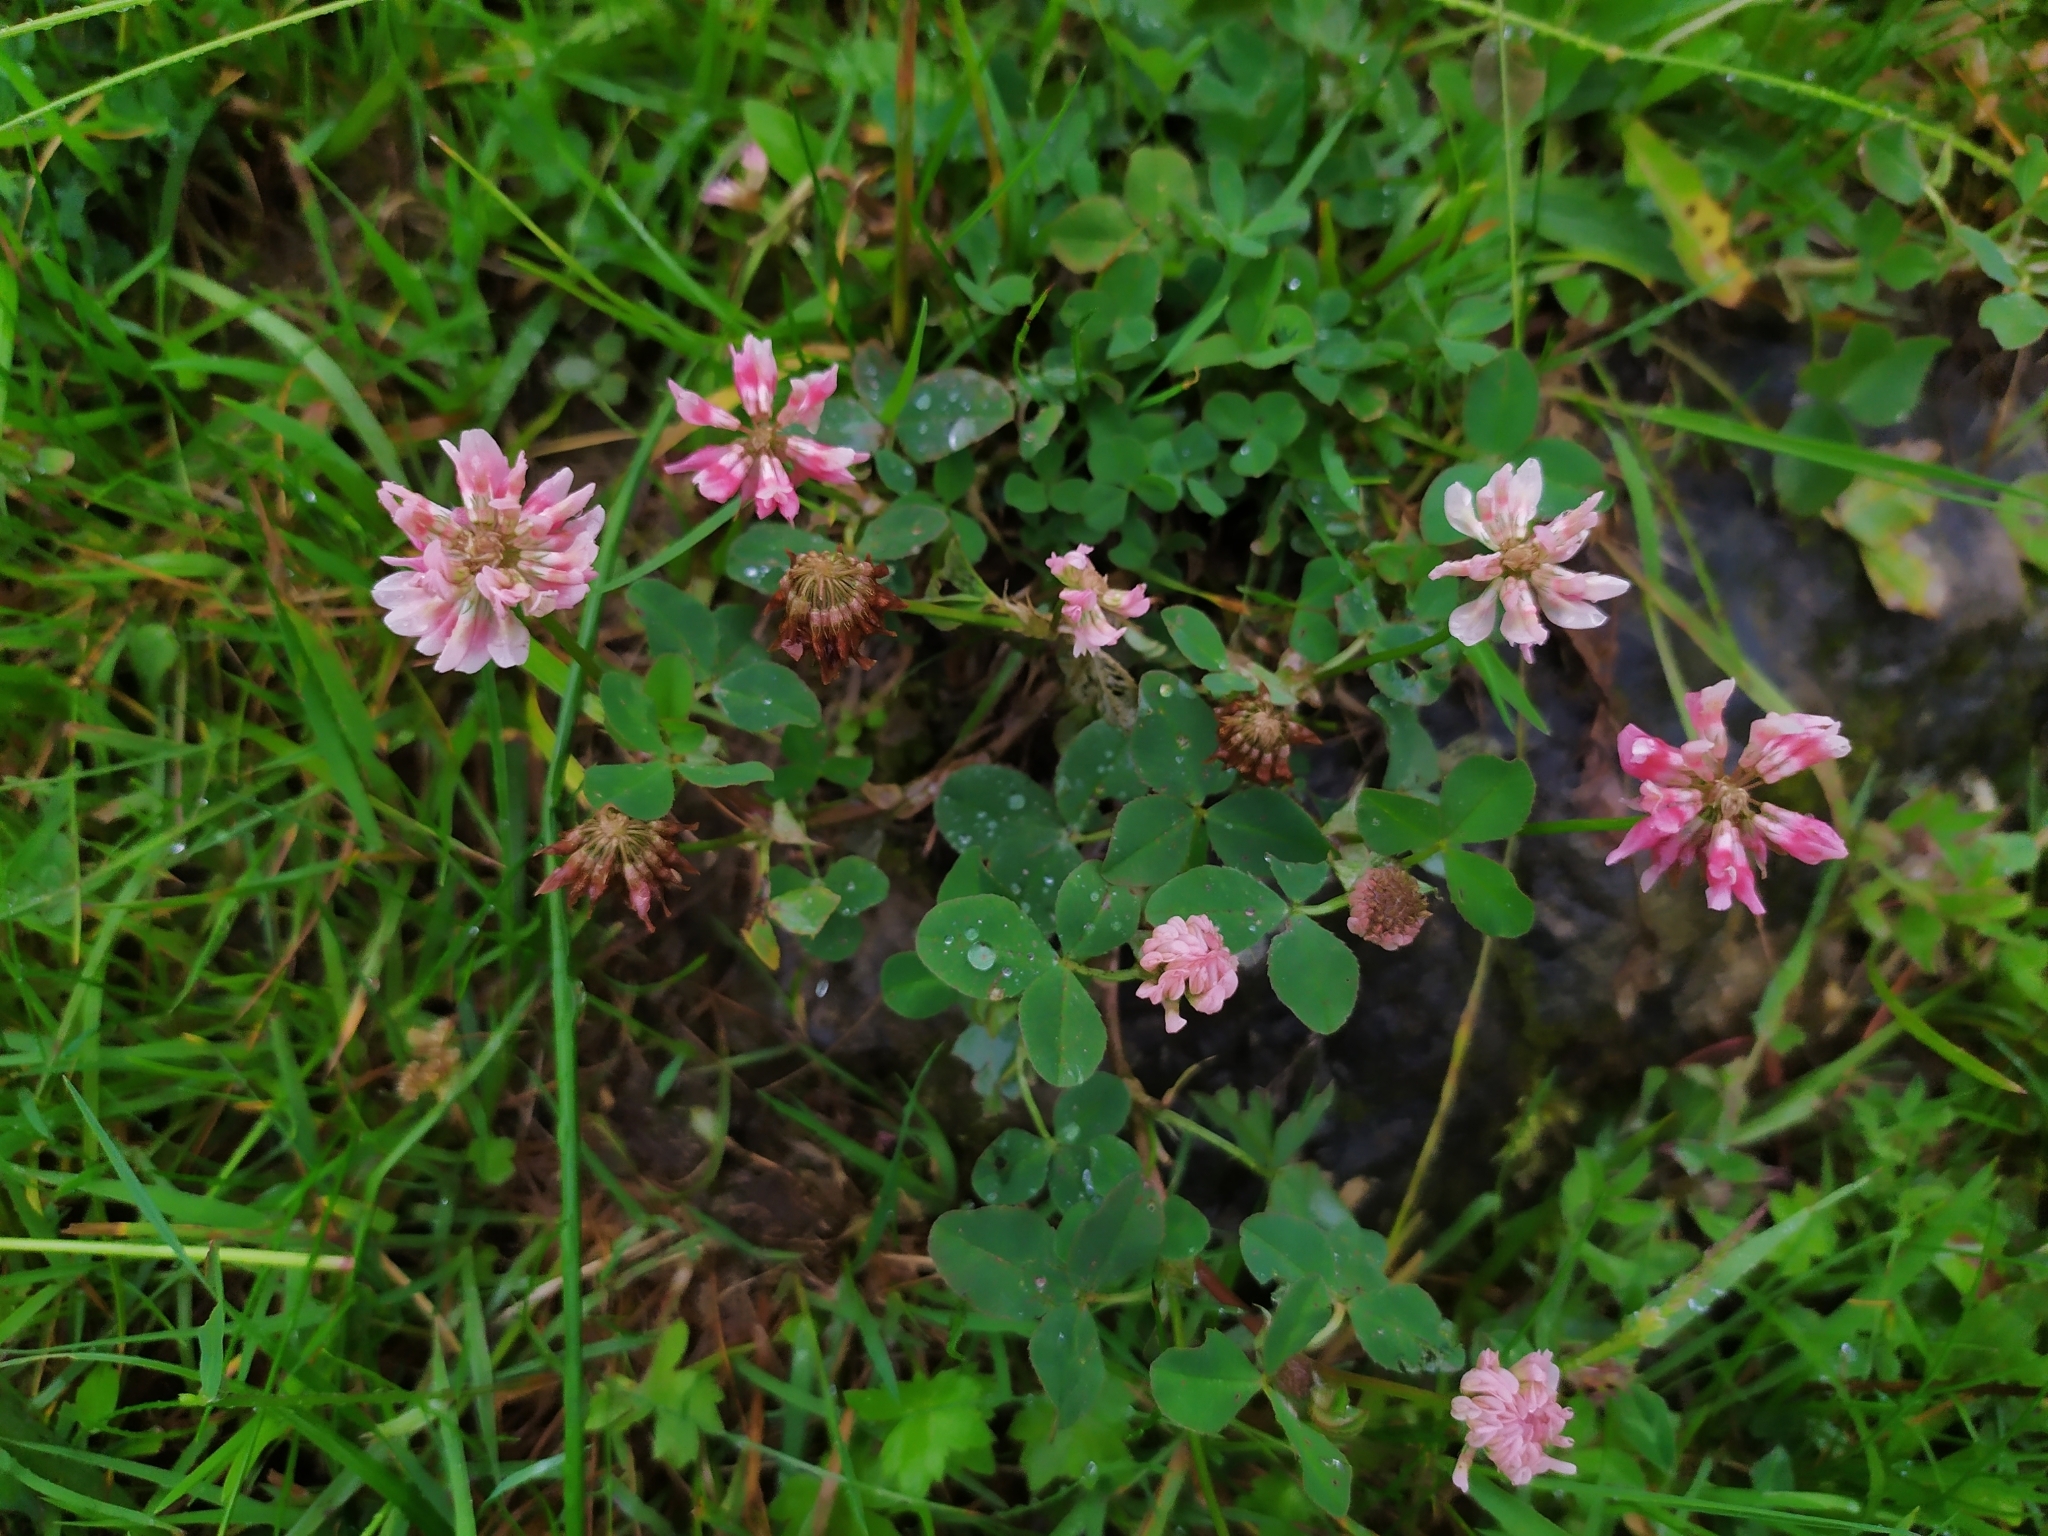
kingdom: Plantae
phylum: Tracheophyta
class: Magnoliopsida
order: Fabales
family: Fabaceae
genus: Trifolium
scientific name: Trifolium hybridum
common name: Alsike clover
